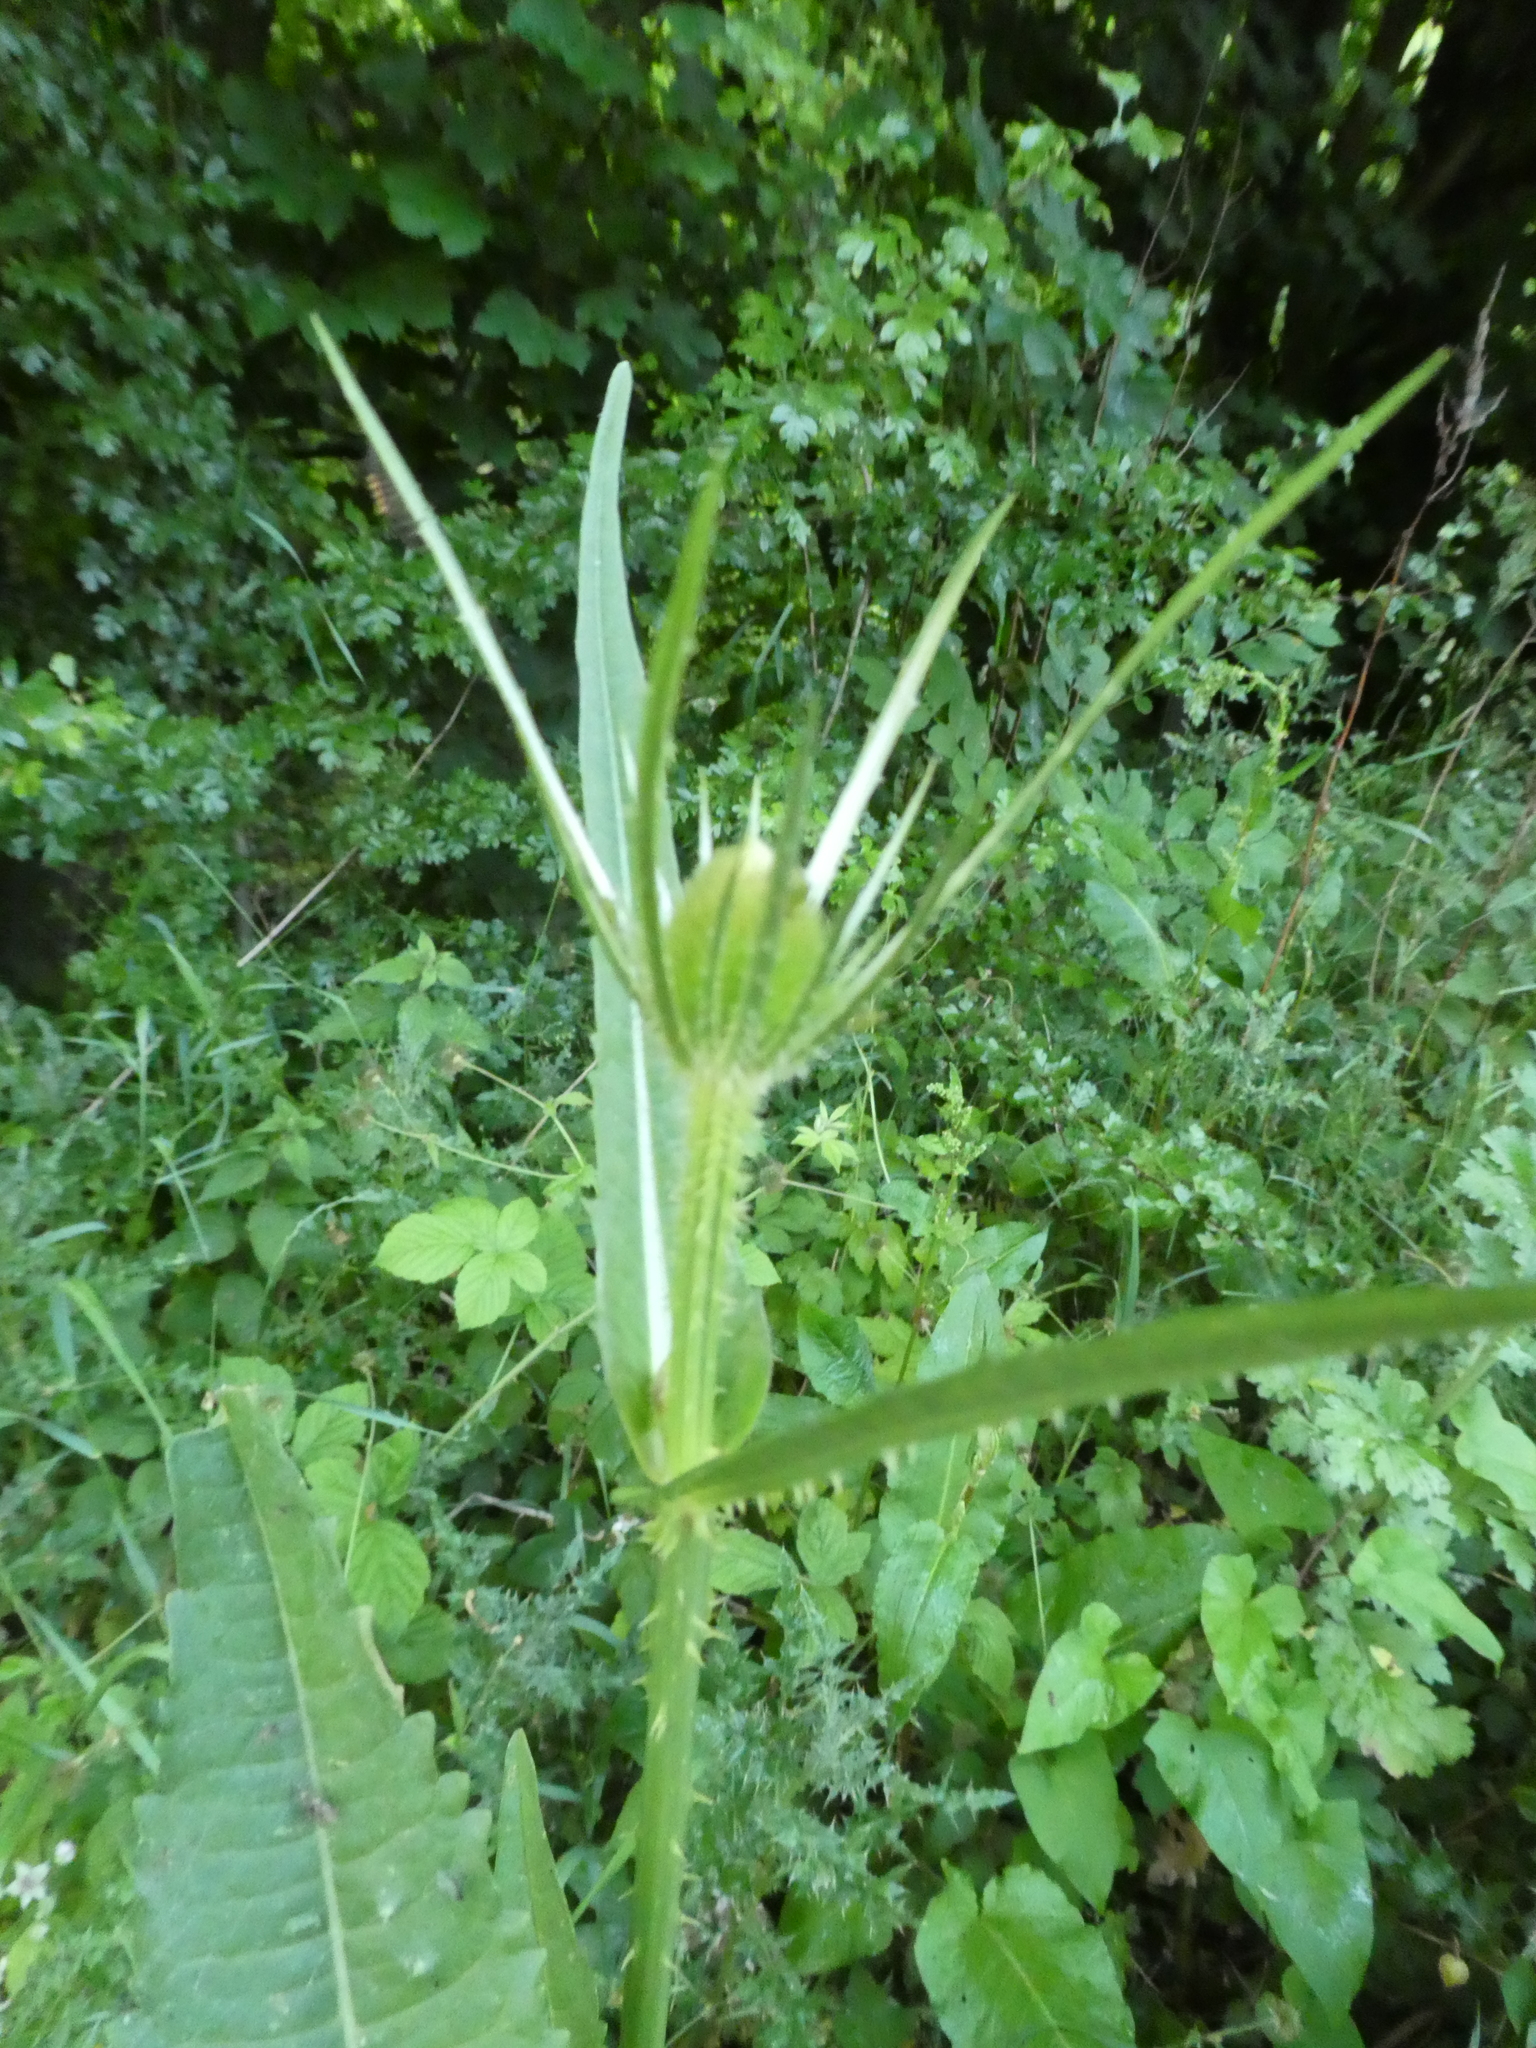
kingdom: Plantae
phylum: Tracheophyta
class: Magnoliopsida
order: Dipsacales
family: Caprifoliaceae
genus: Dipsacus
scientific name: Dipsacus fullonum
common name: Teasel
